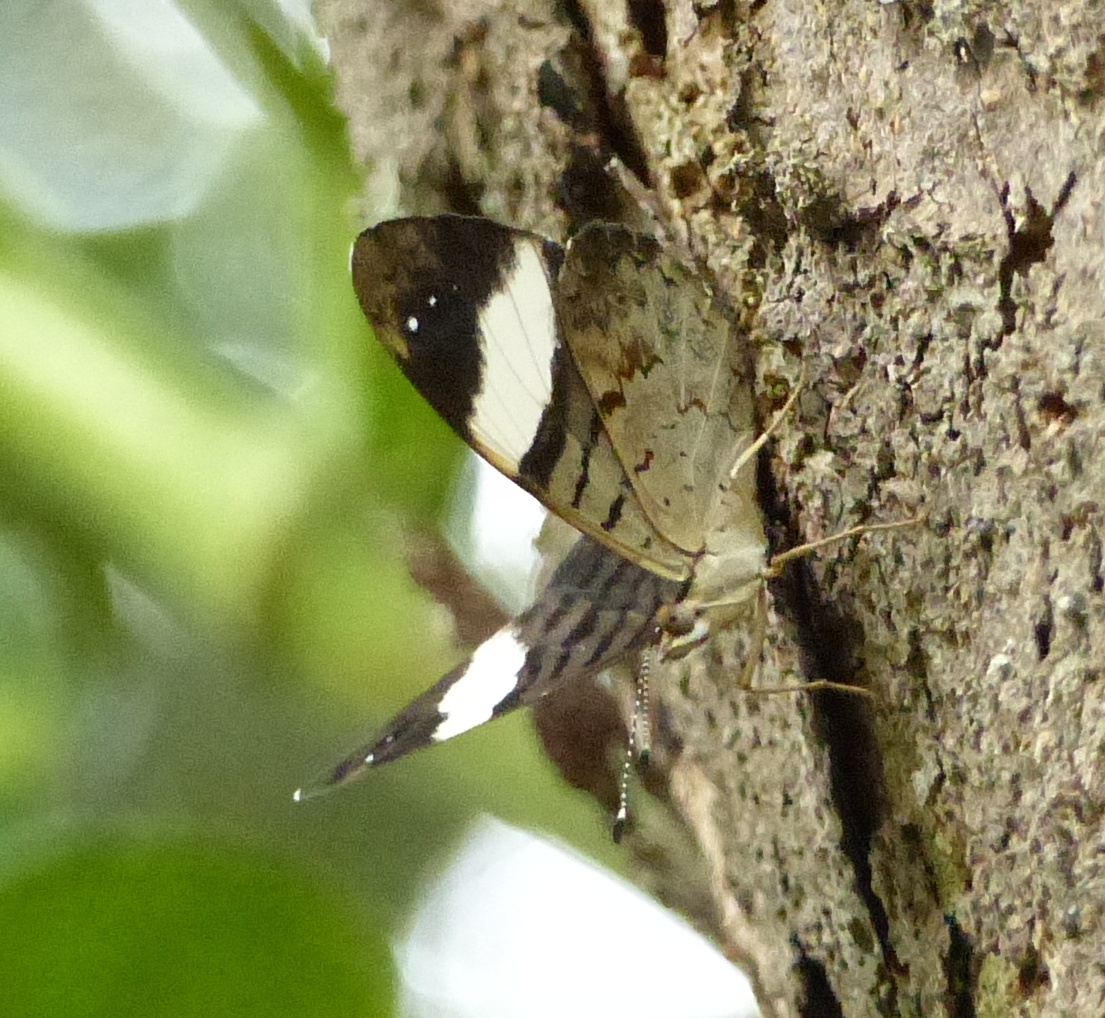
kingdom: Animalia
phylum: Arthropoda
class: Insecta
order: Lepidoptera
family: Nymphalidae
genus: Ectima
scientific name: Ectima thecla
